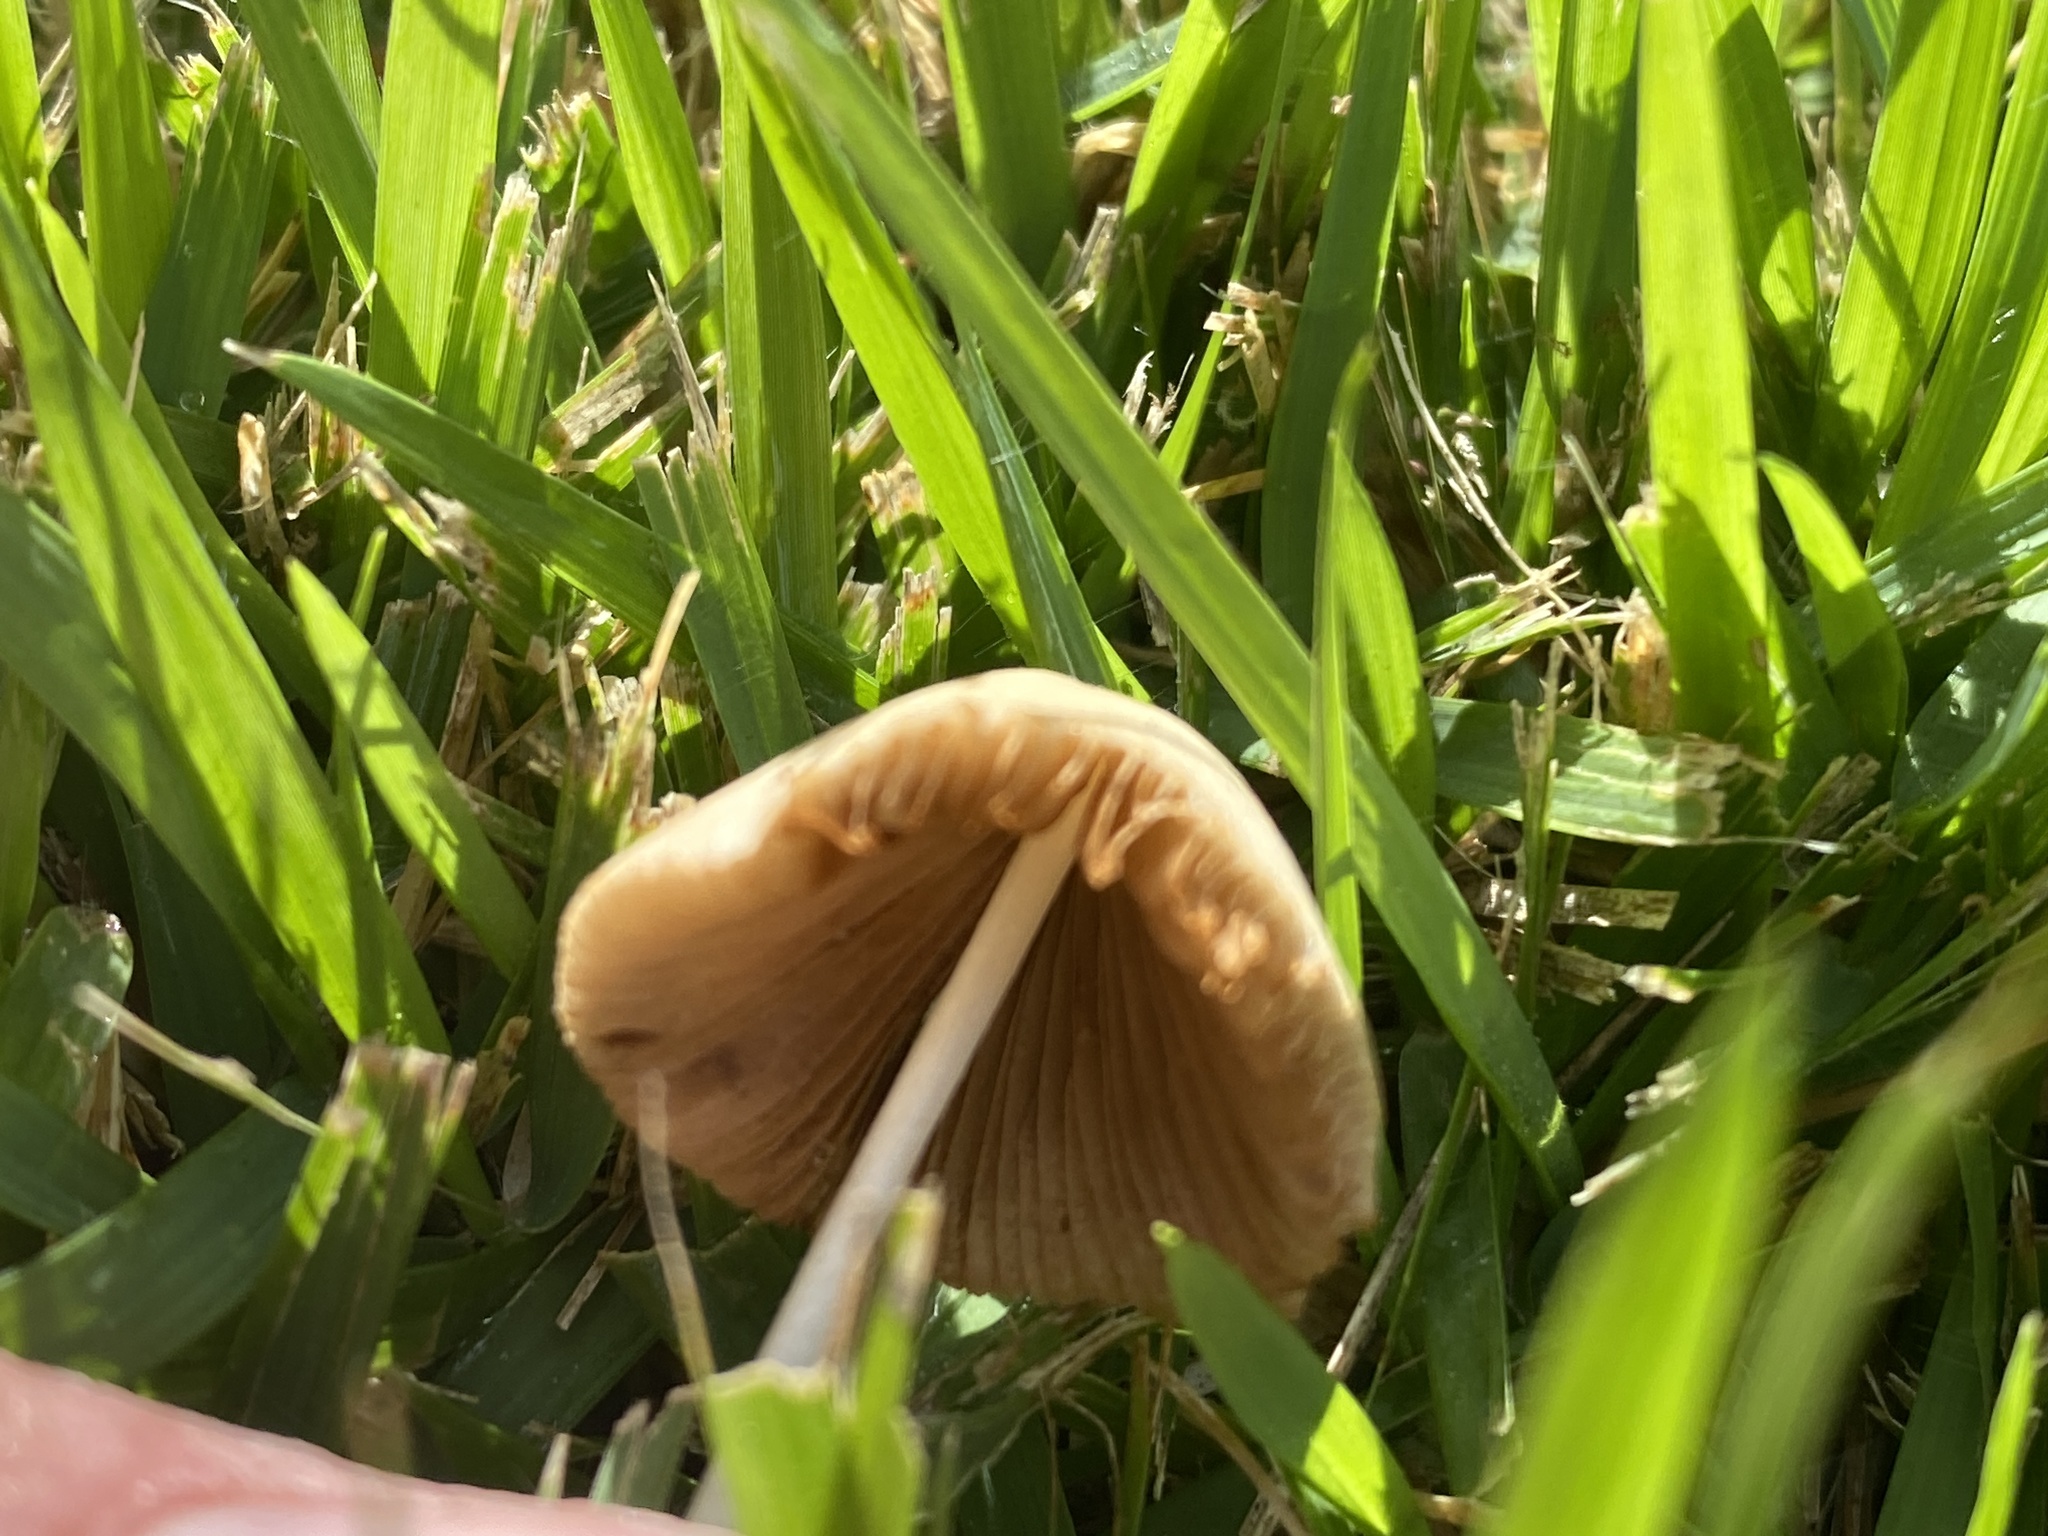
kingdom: Fungi
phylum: Basidiomycota
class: Agaricomycetes
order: Agaricales
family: Bolbitiaceae
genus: Conocybe
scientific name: Conocybe apala
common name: Milky conecap
